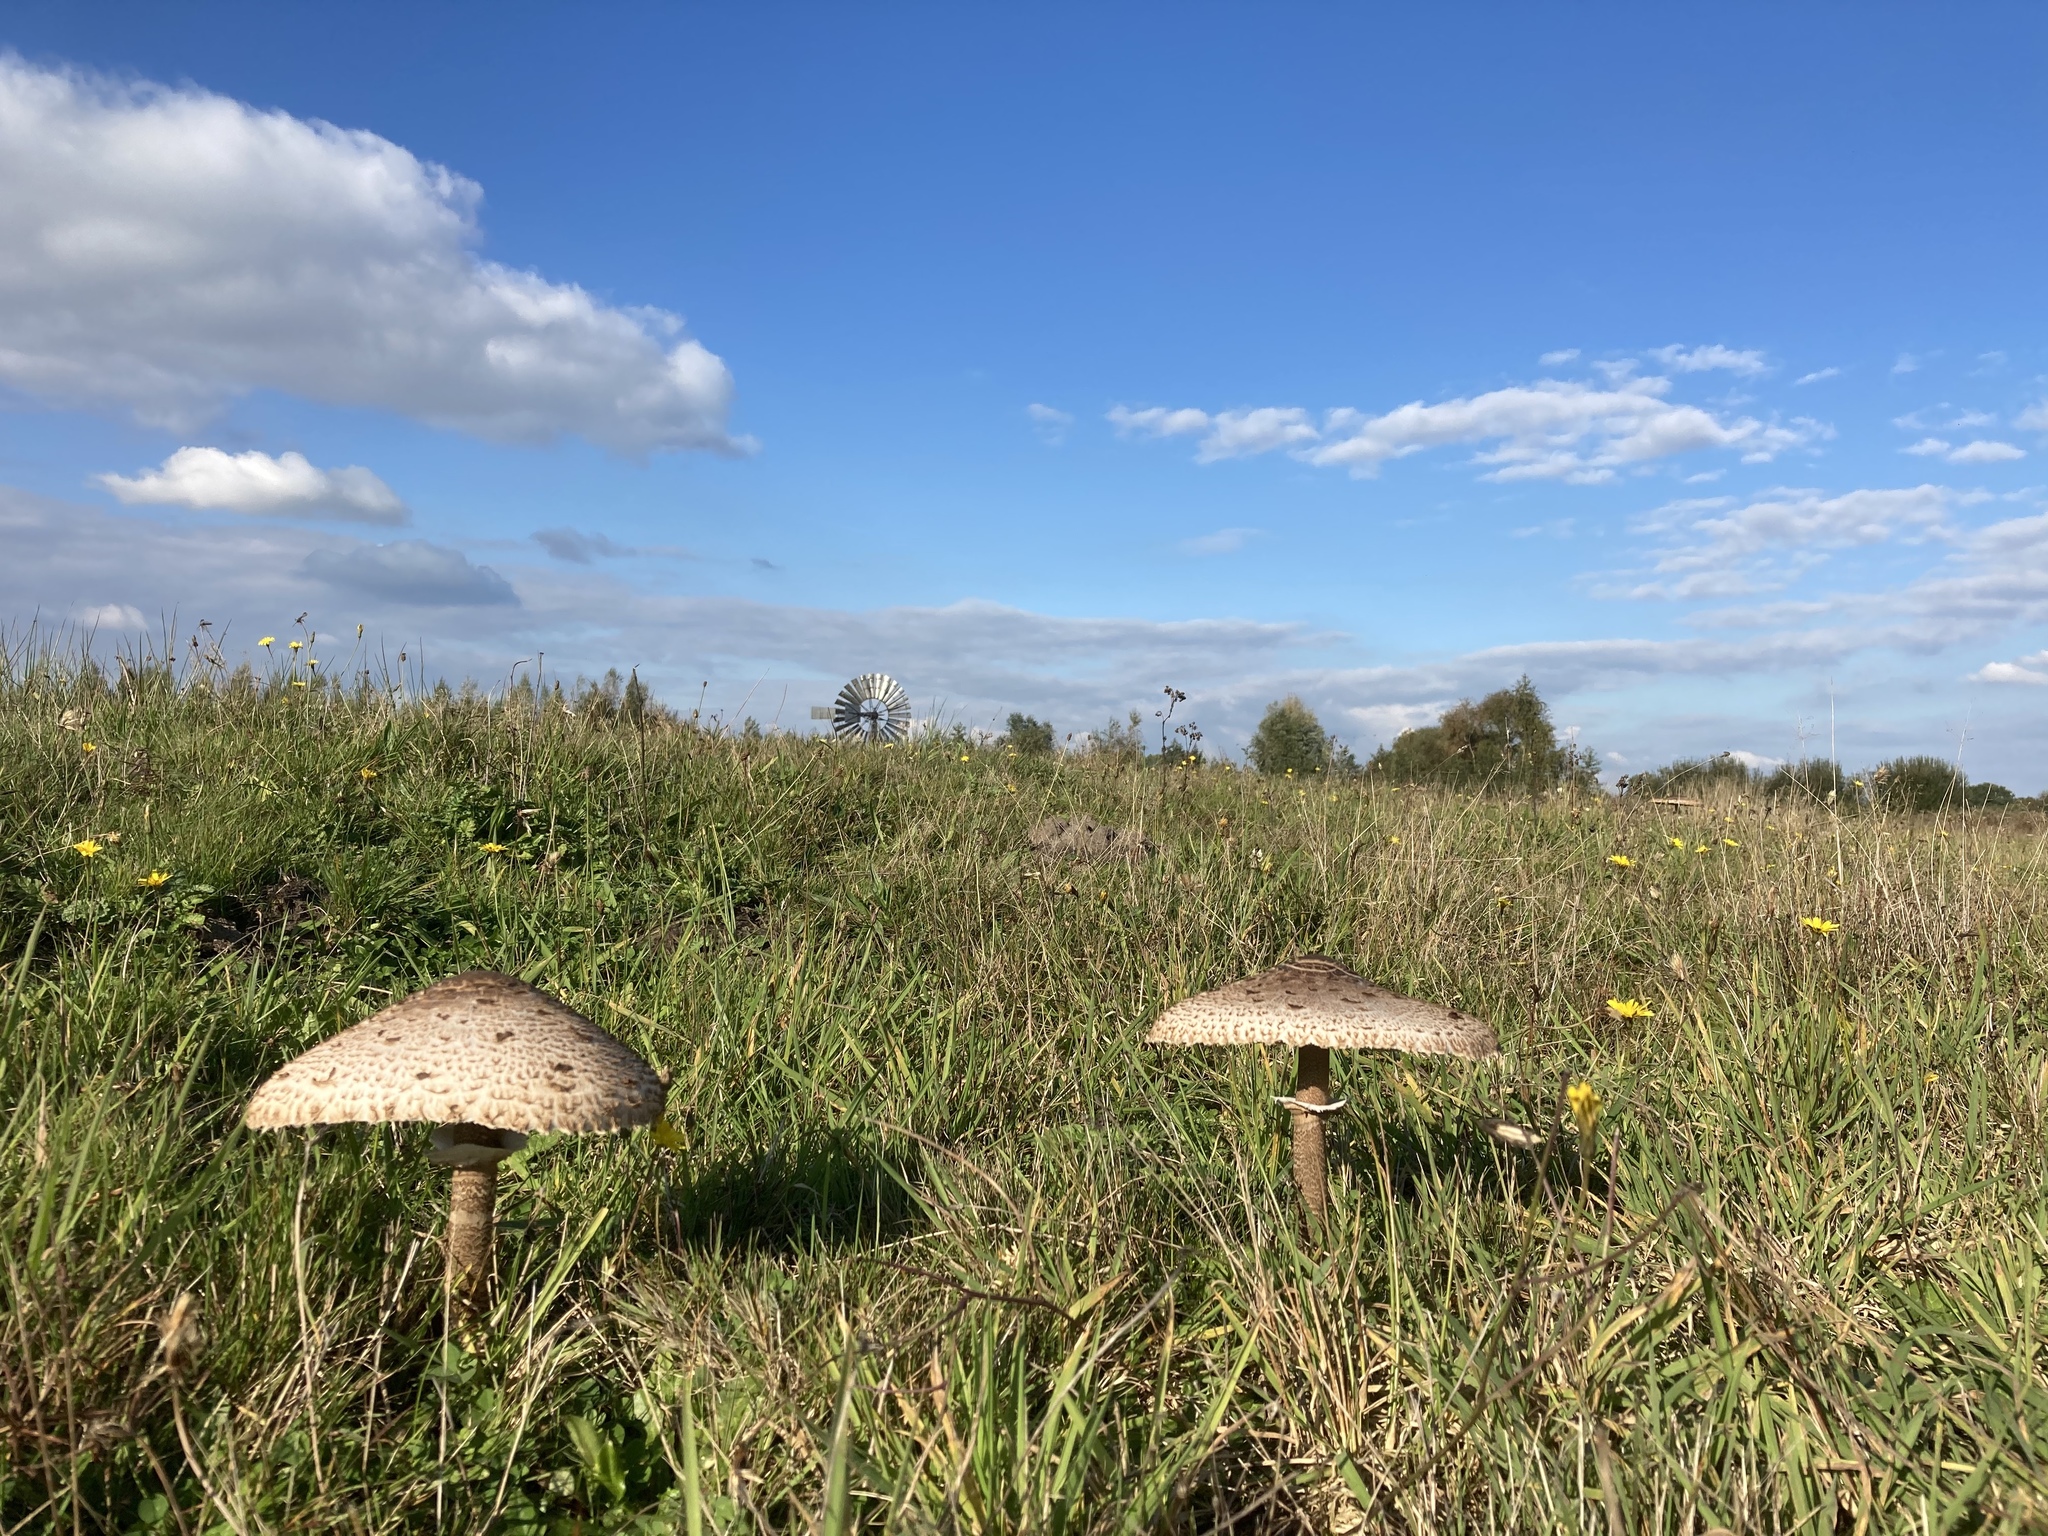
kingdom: Fungi
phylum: Basidiomycota
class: Agaricomycetes
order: Agaricales
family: Agaricaceae
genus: Macrolepiota
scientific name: Macrolepiota procera
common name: Parasol
